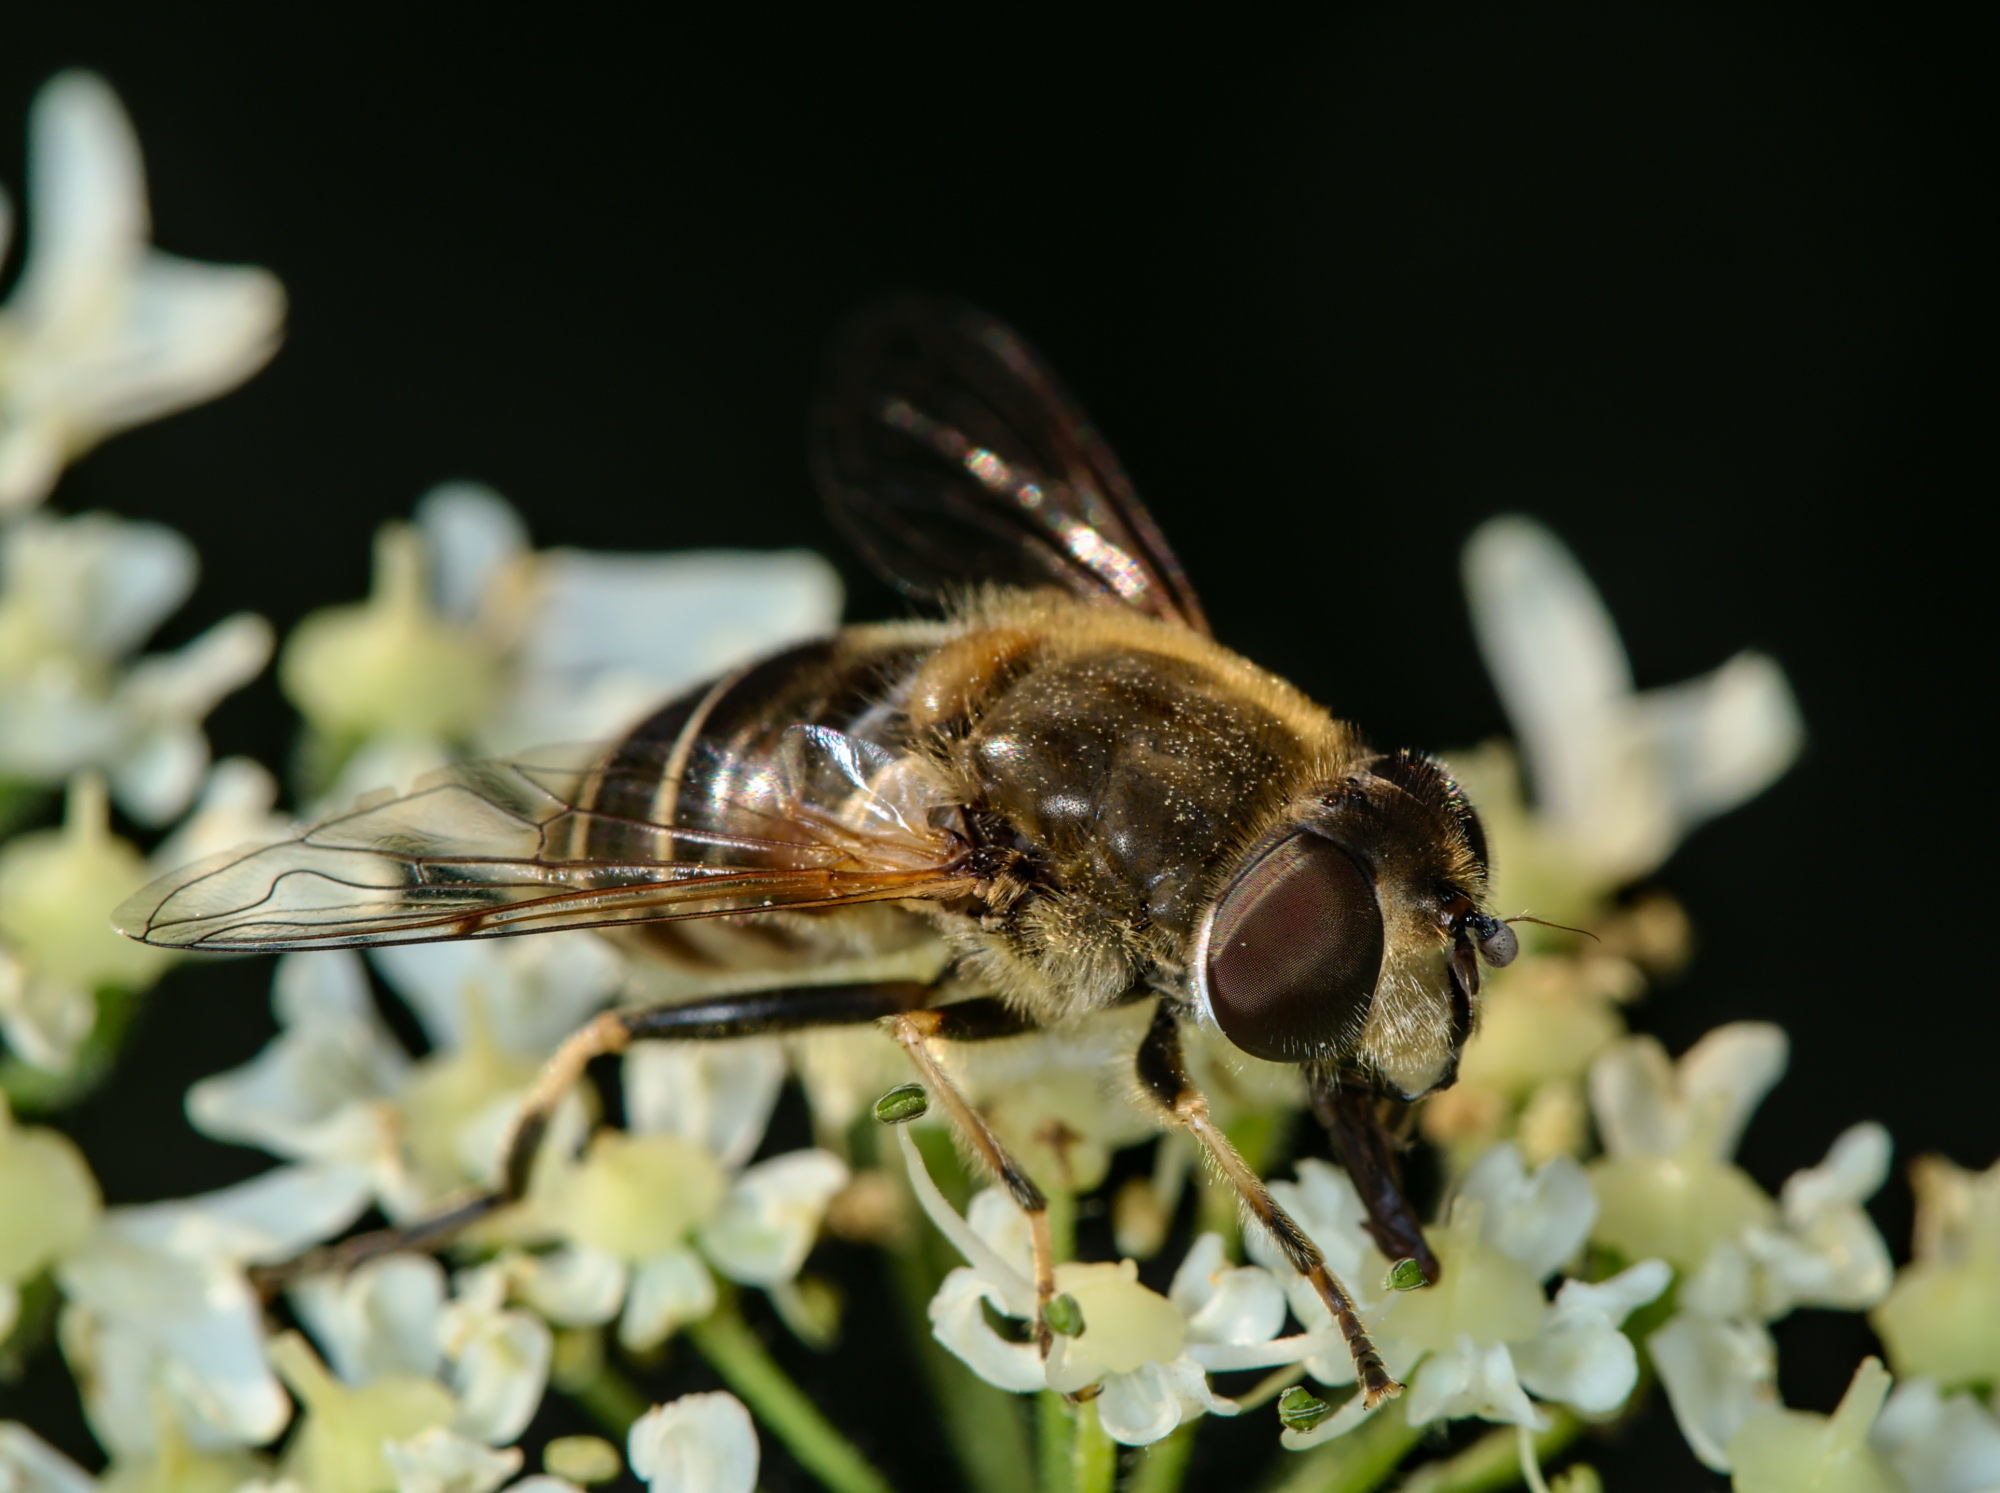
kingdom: Animalia
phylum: Arthropoda
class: Insecta
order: Diptera
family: Syrphidae
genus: Eristalis
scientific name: Eristalis nemorum
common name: Orange-spined drone fly
